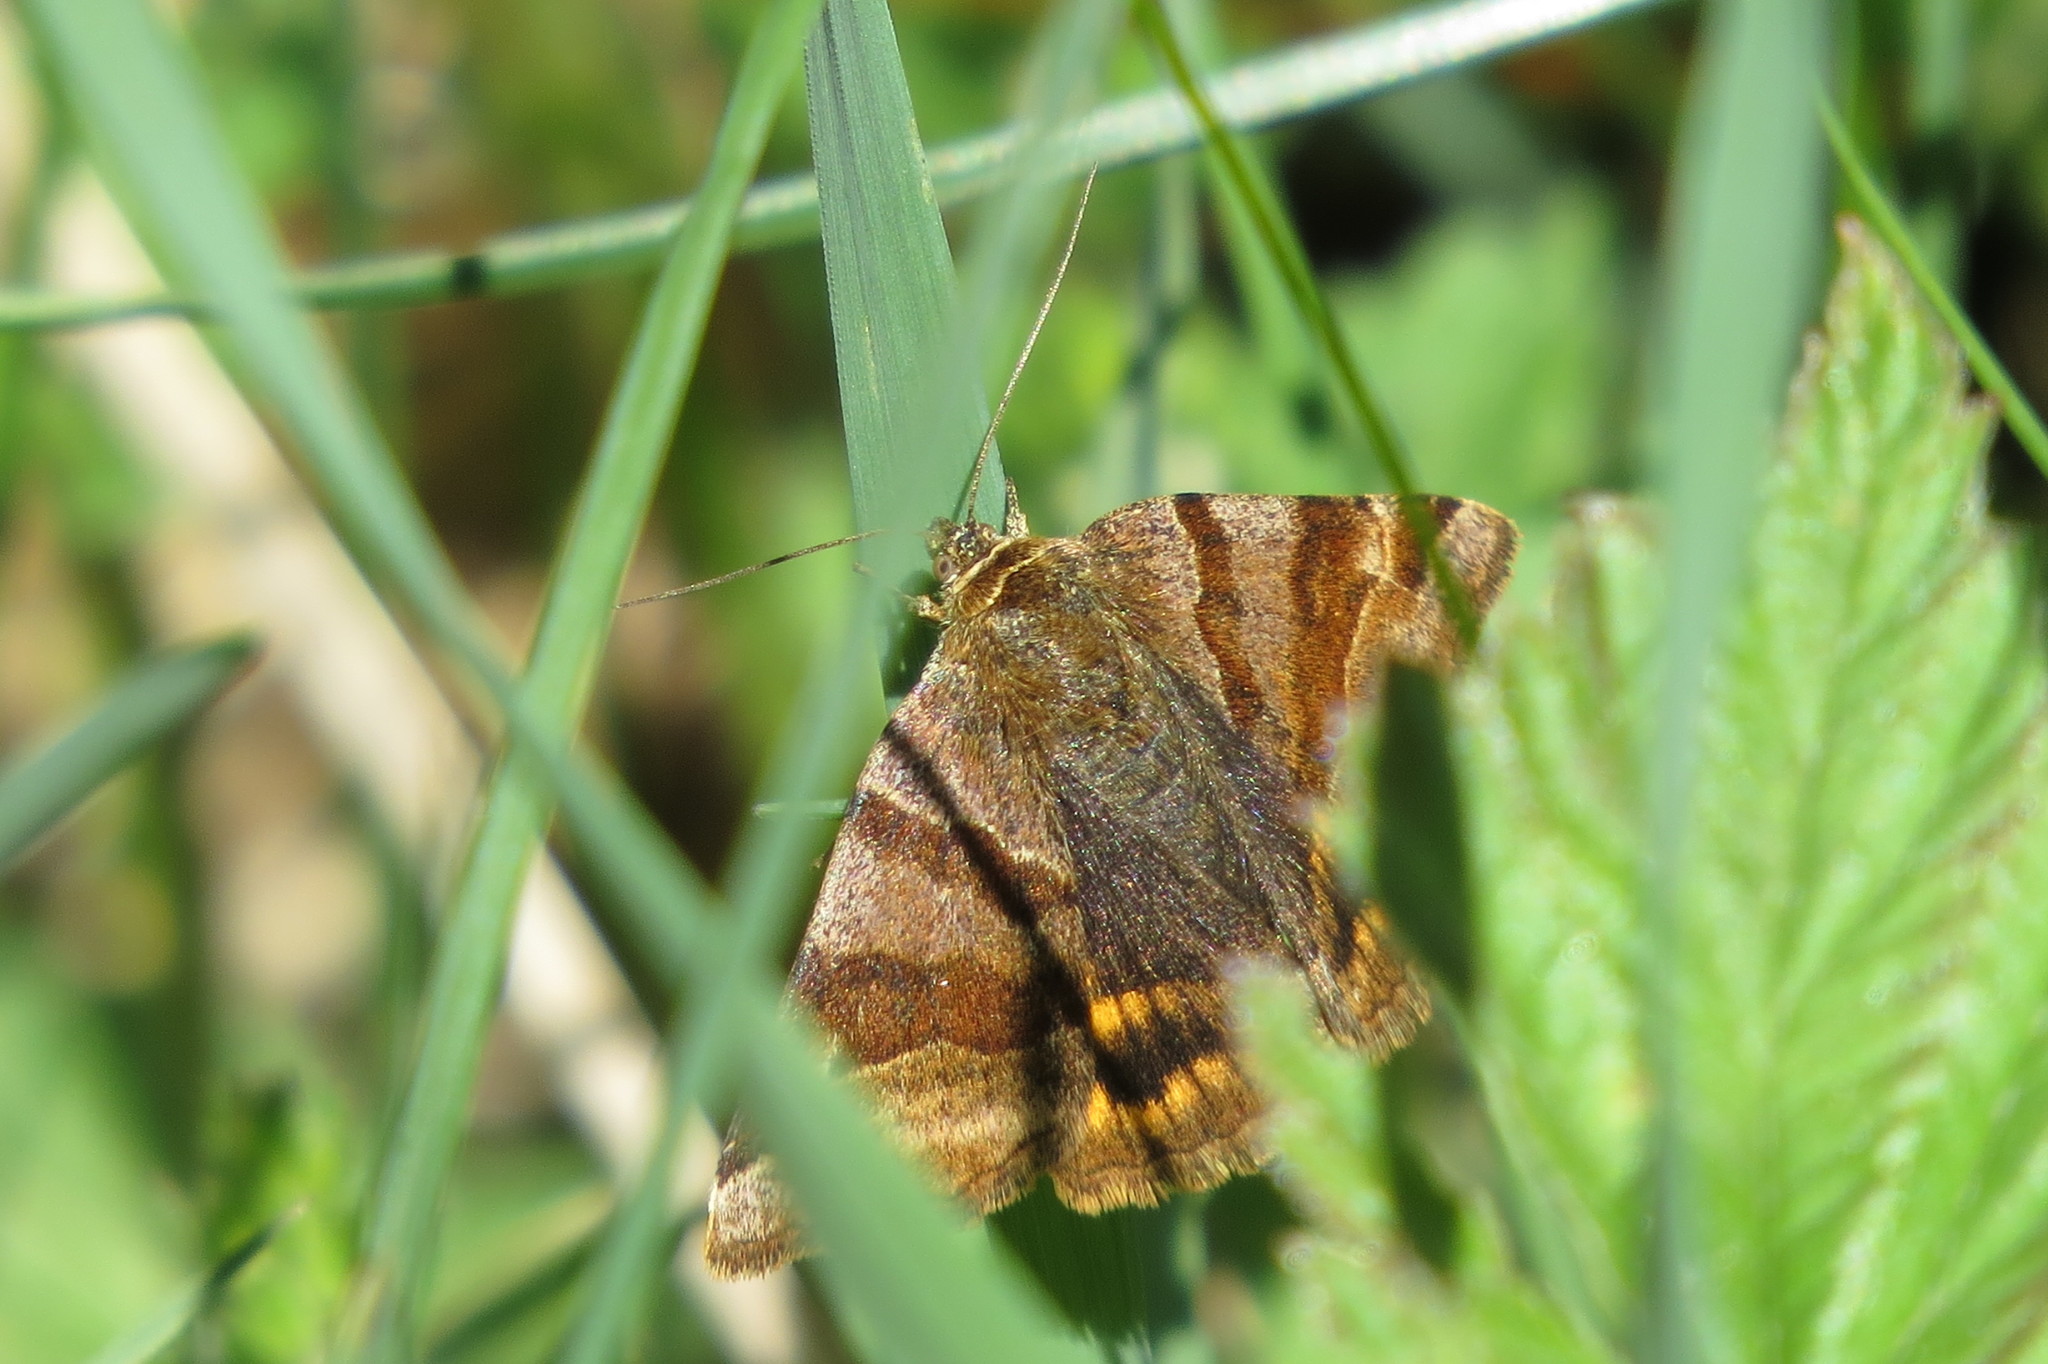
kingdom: Animalia
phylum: Arthropoda
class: Insecta
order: Lepidoptera
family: Erebidae
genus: Euclidia
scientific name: Euclidia glyphica
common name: Burnet companion
